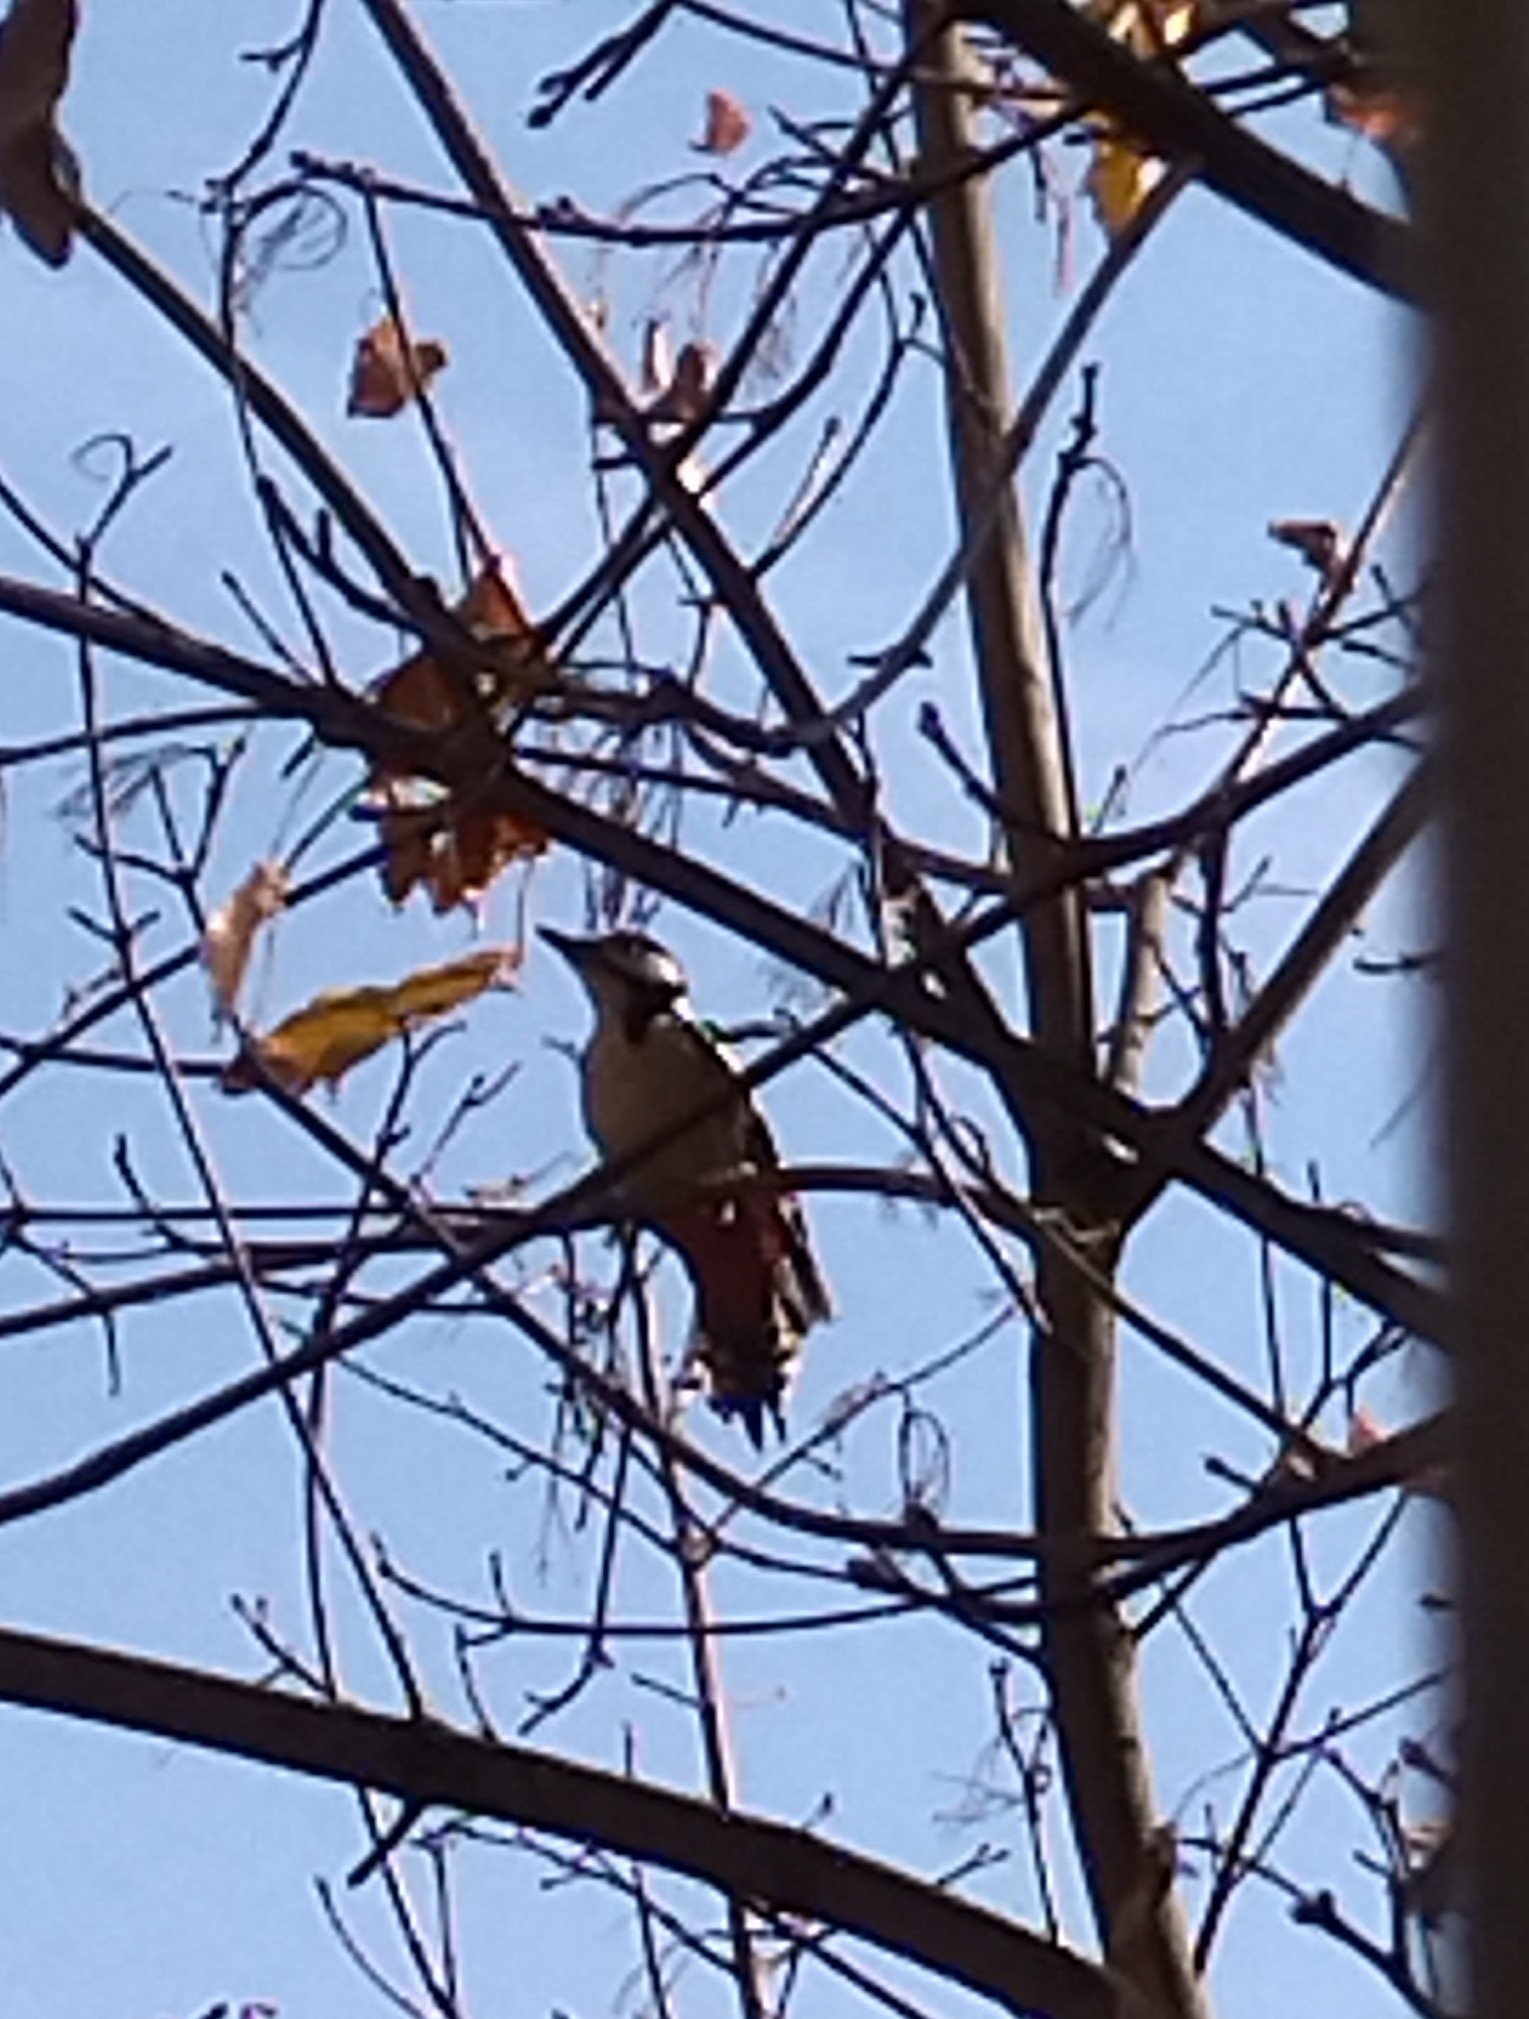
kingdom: Animalia
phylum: Chordata
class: Aves
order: Piciformes
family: Picidae
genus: Dendrocopos
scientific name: Dendrocopos major
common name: Great spotted woodpecker
